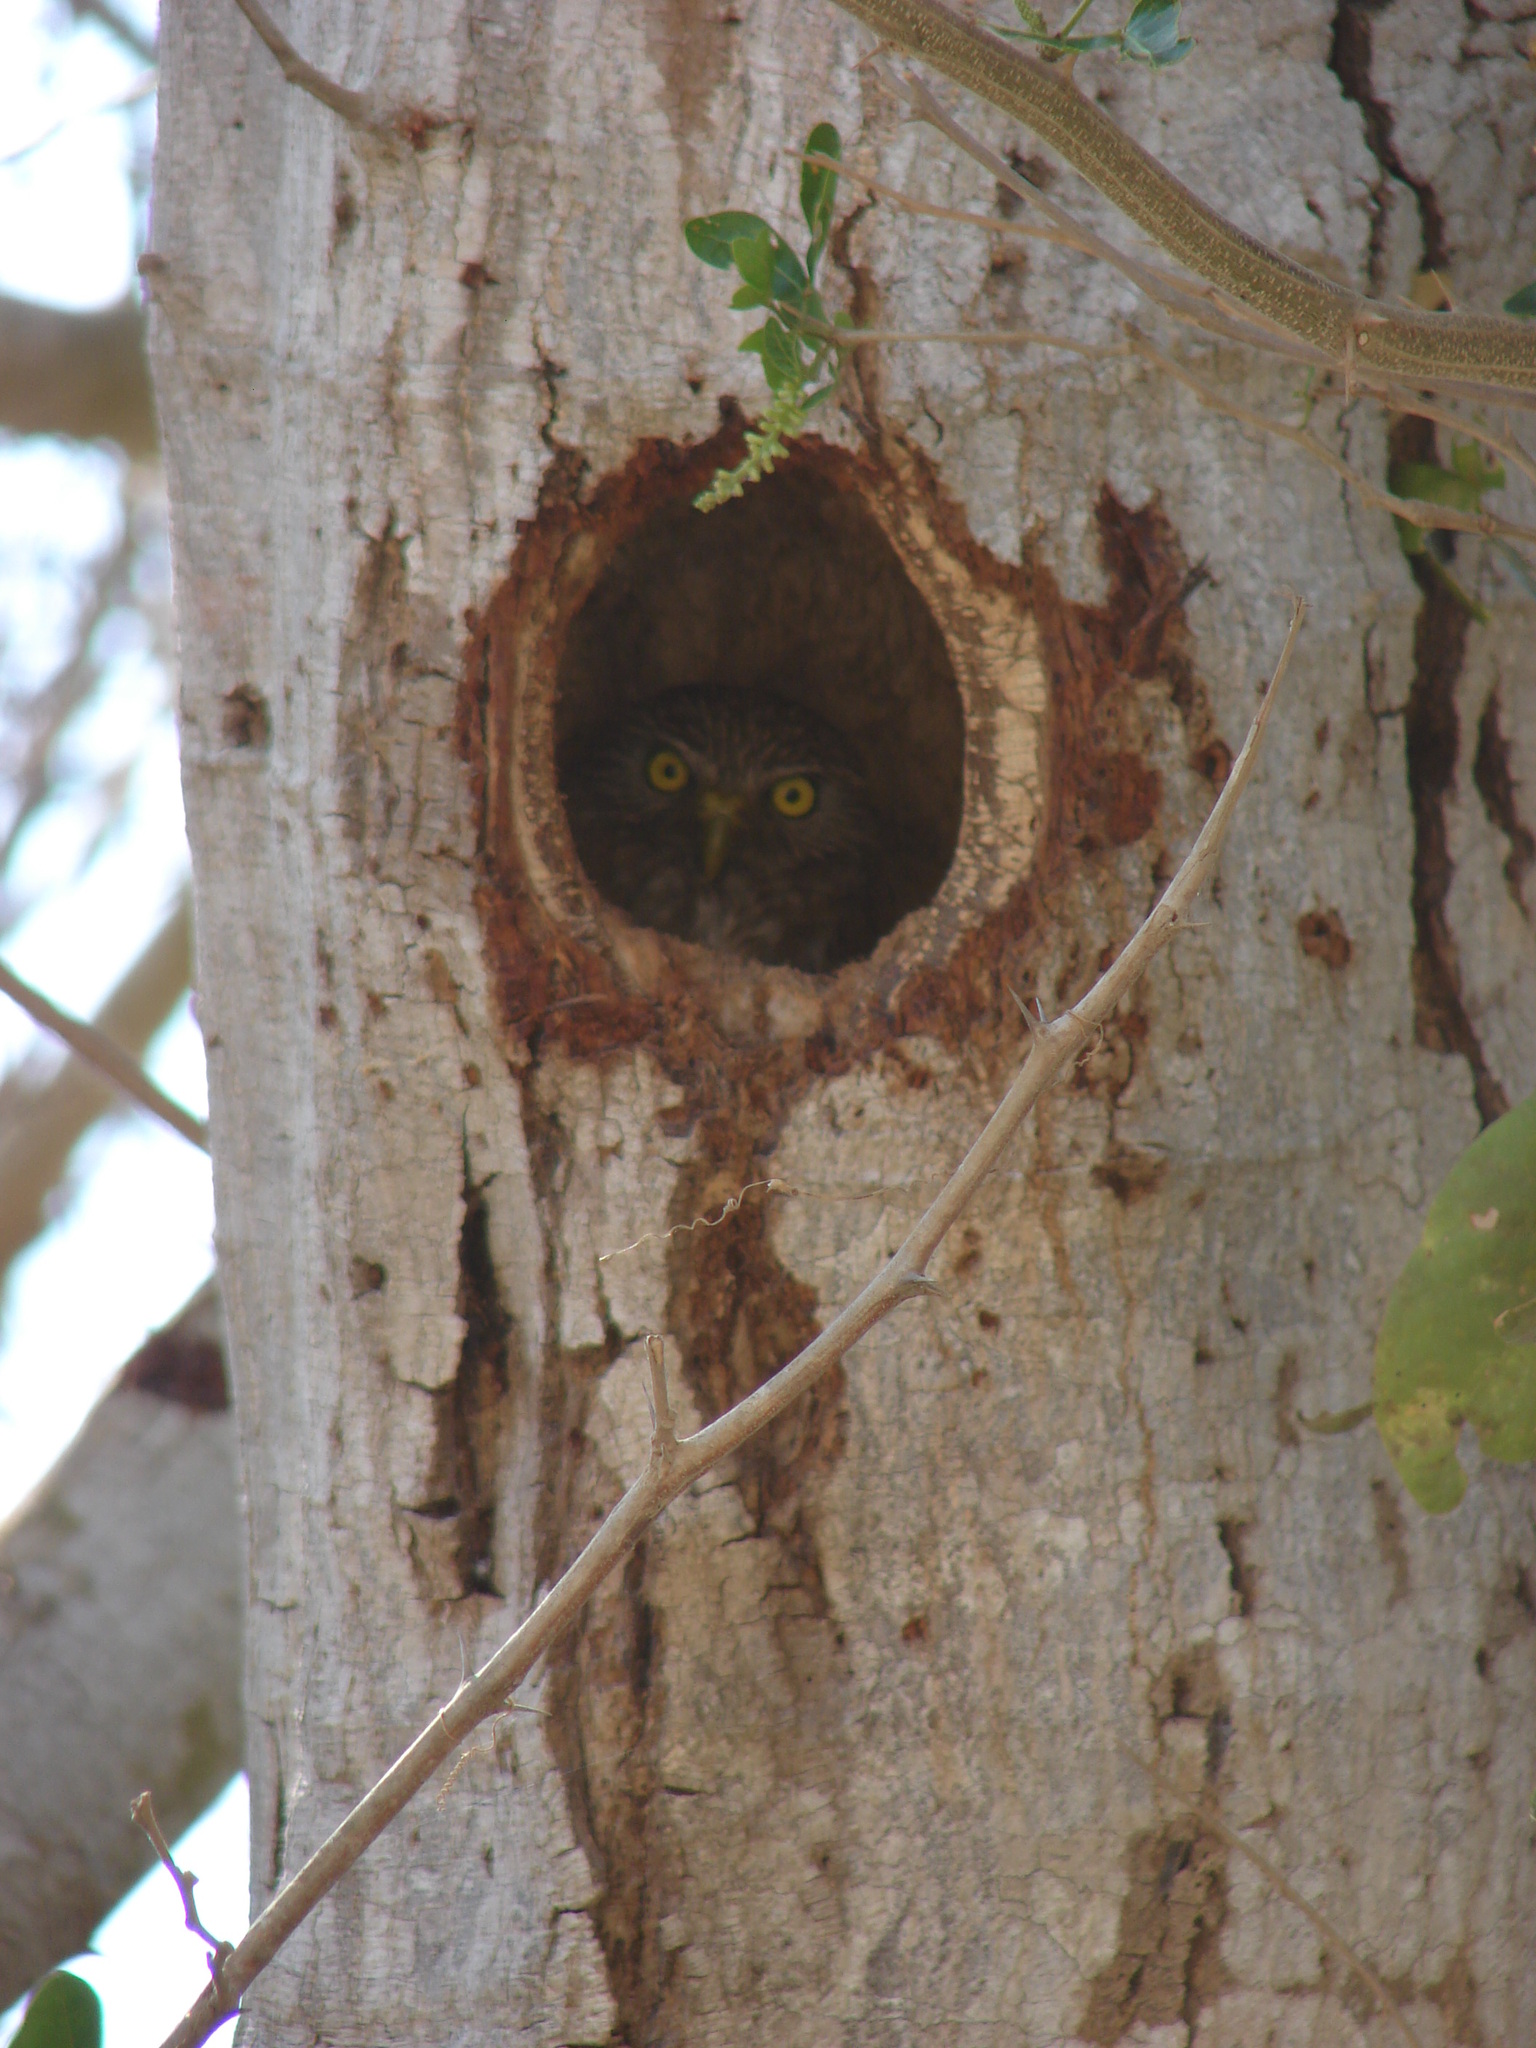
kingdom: Animalia
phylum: Chordata
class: Aves
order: Strigiformes
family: Strigidae
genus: Glaucidium
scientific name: Glaucidium brasilianum
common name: Ferruginous pygmy-owl
